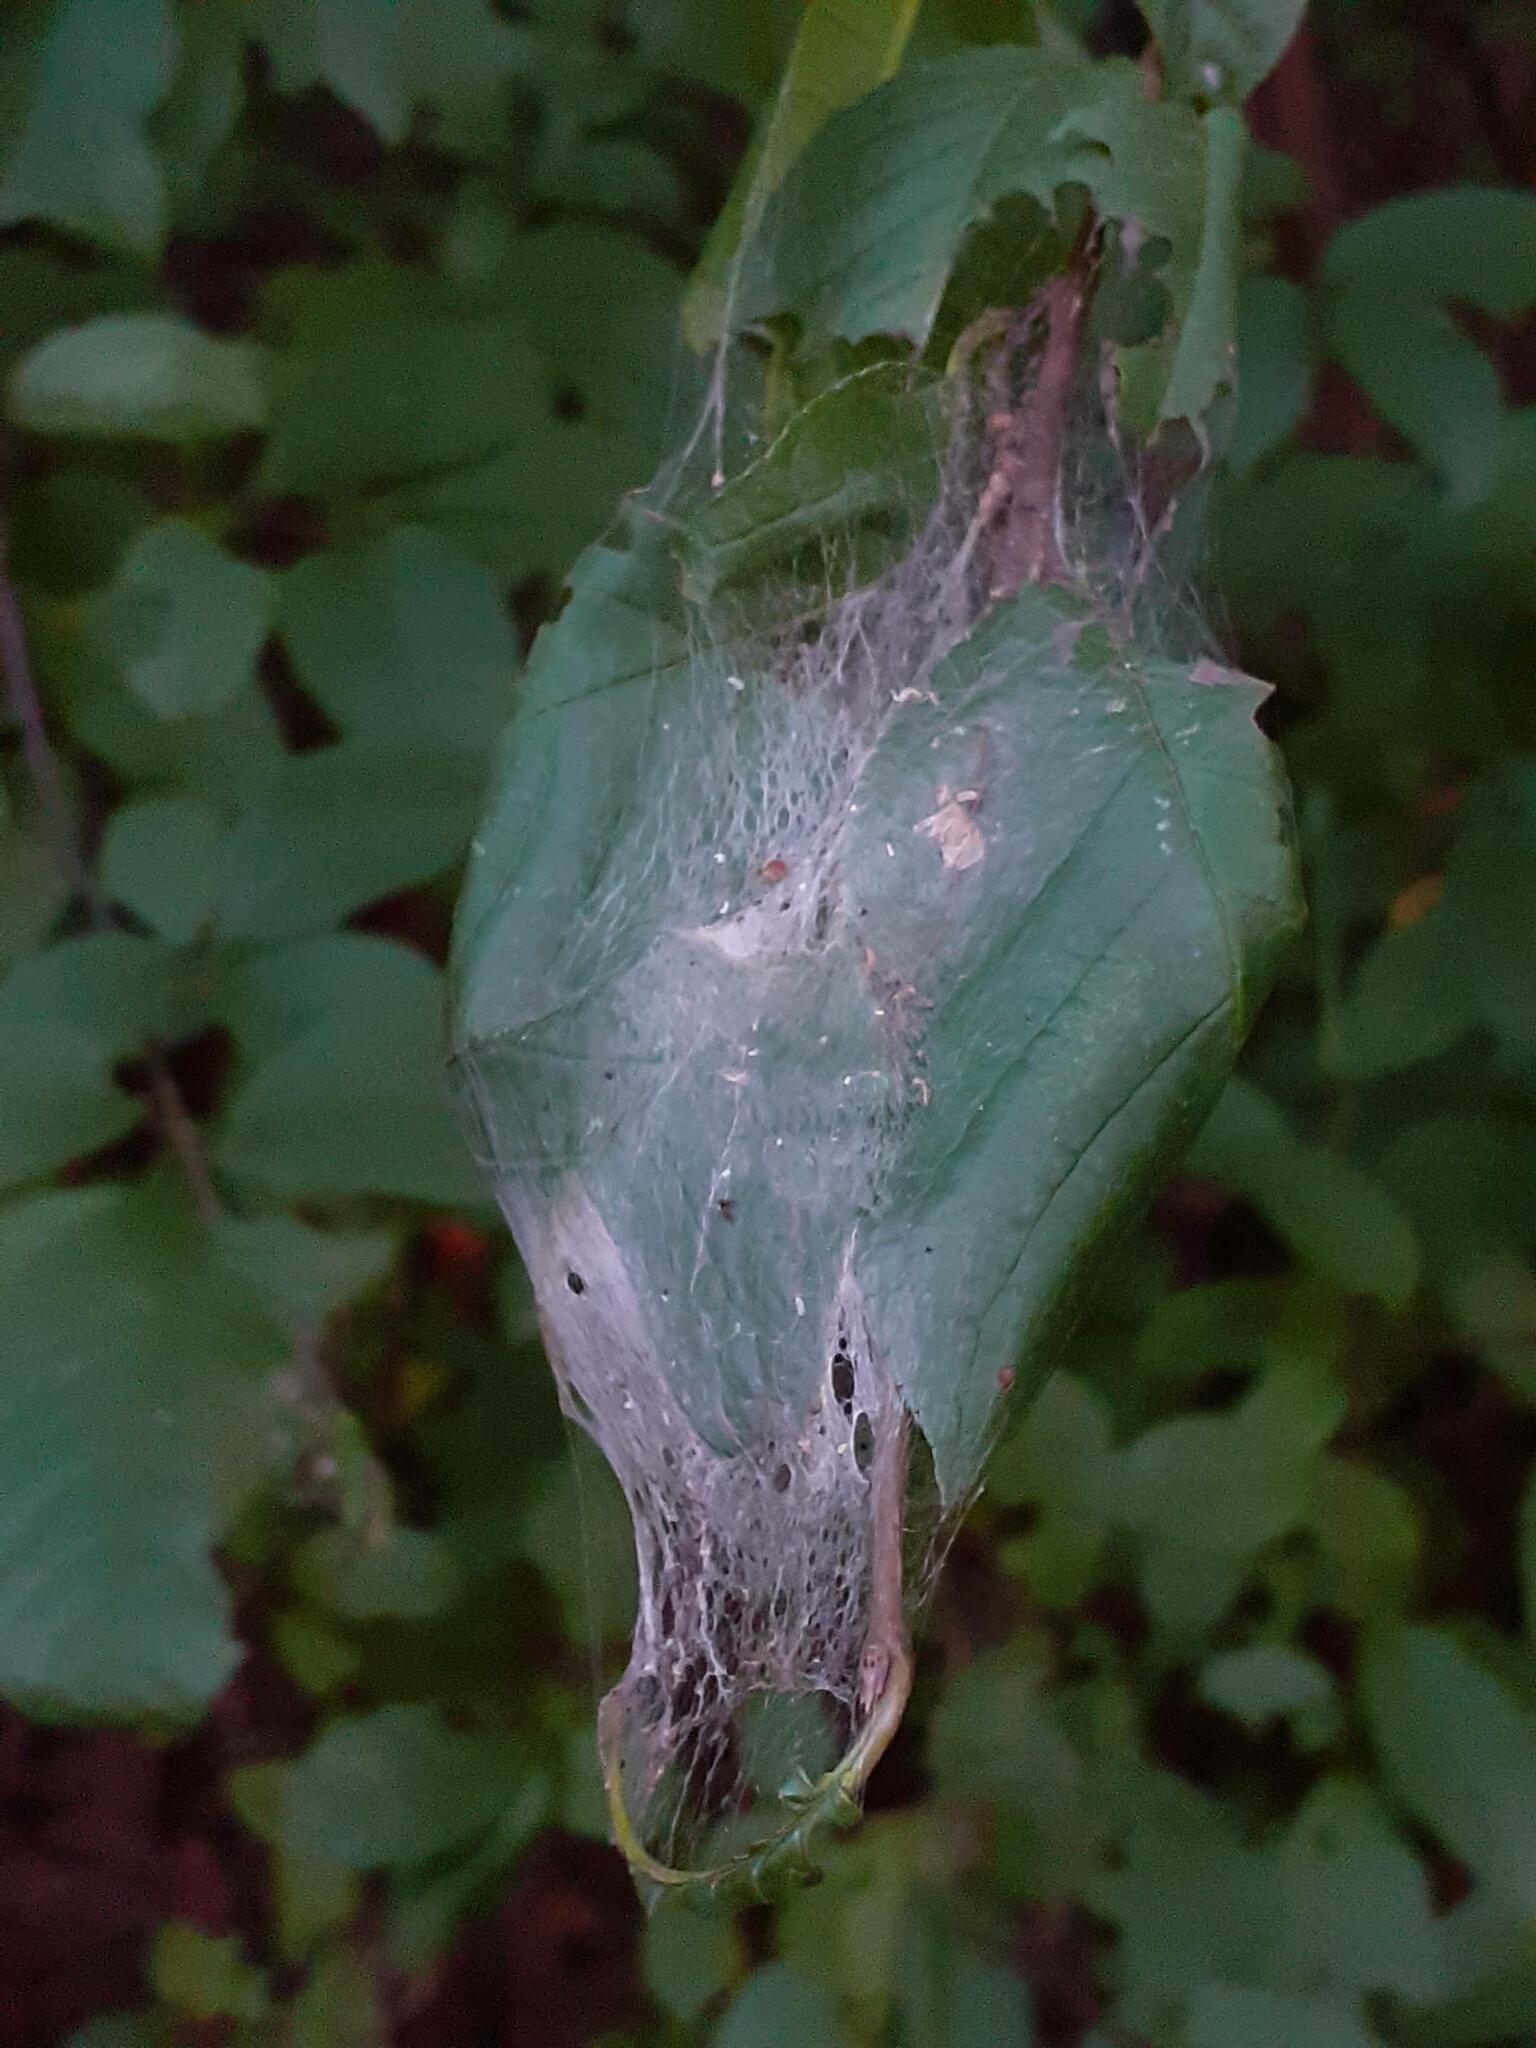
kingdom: Animalia
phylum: Arthropoda
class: Insecta
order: Lepidoptera
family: Yponomeutidae
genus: Yponomeuta
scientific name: Yponomeuta evonymella
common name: Bird-cherry ermine
